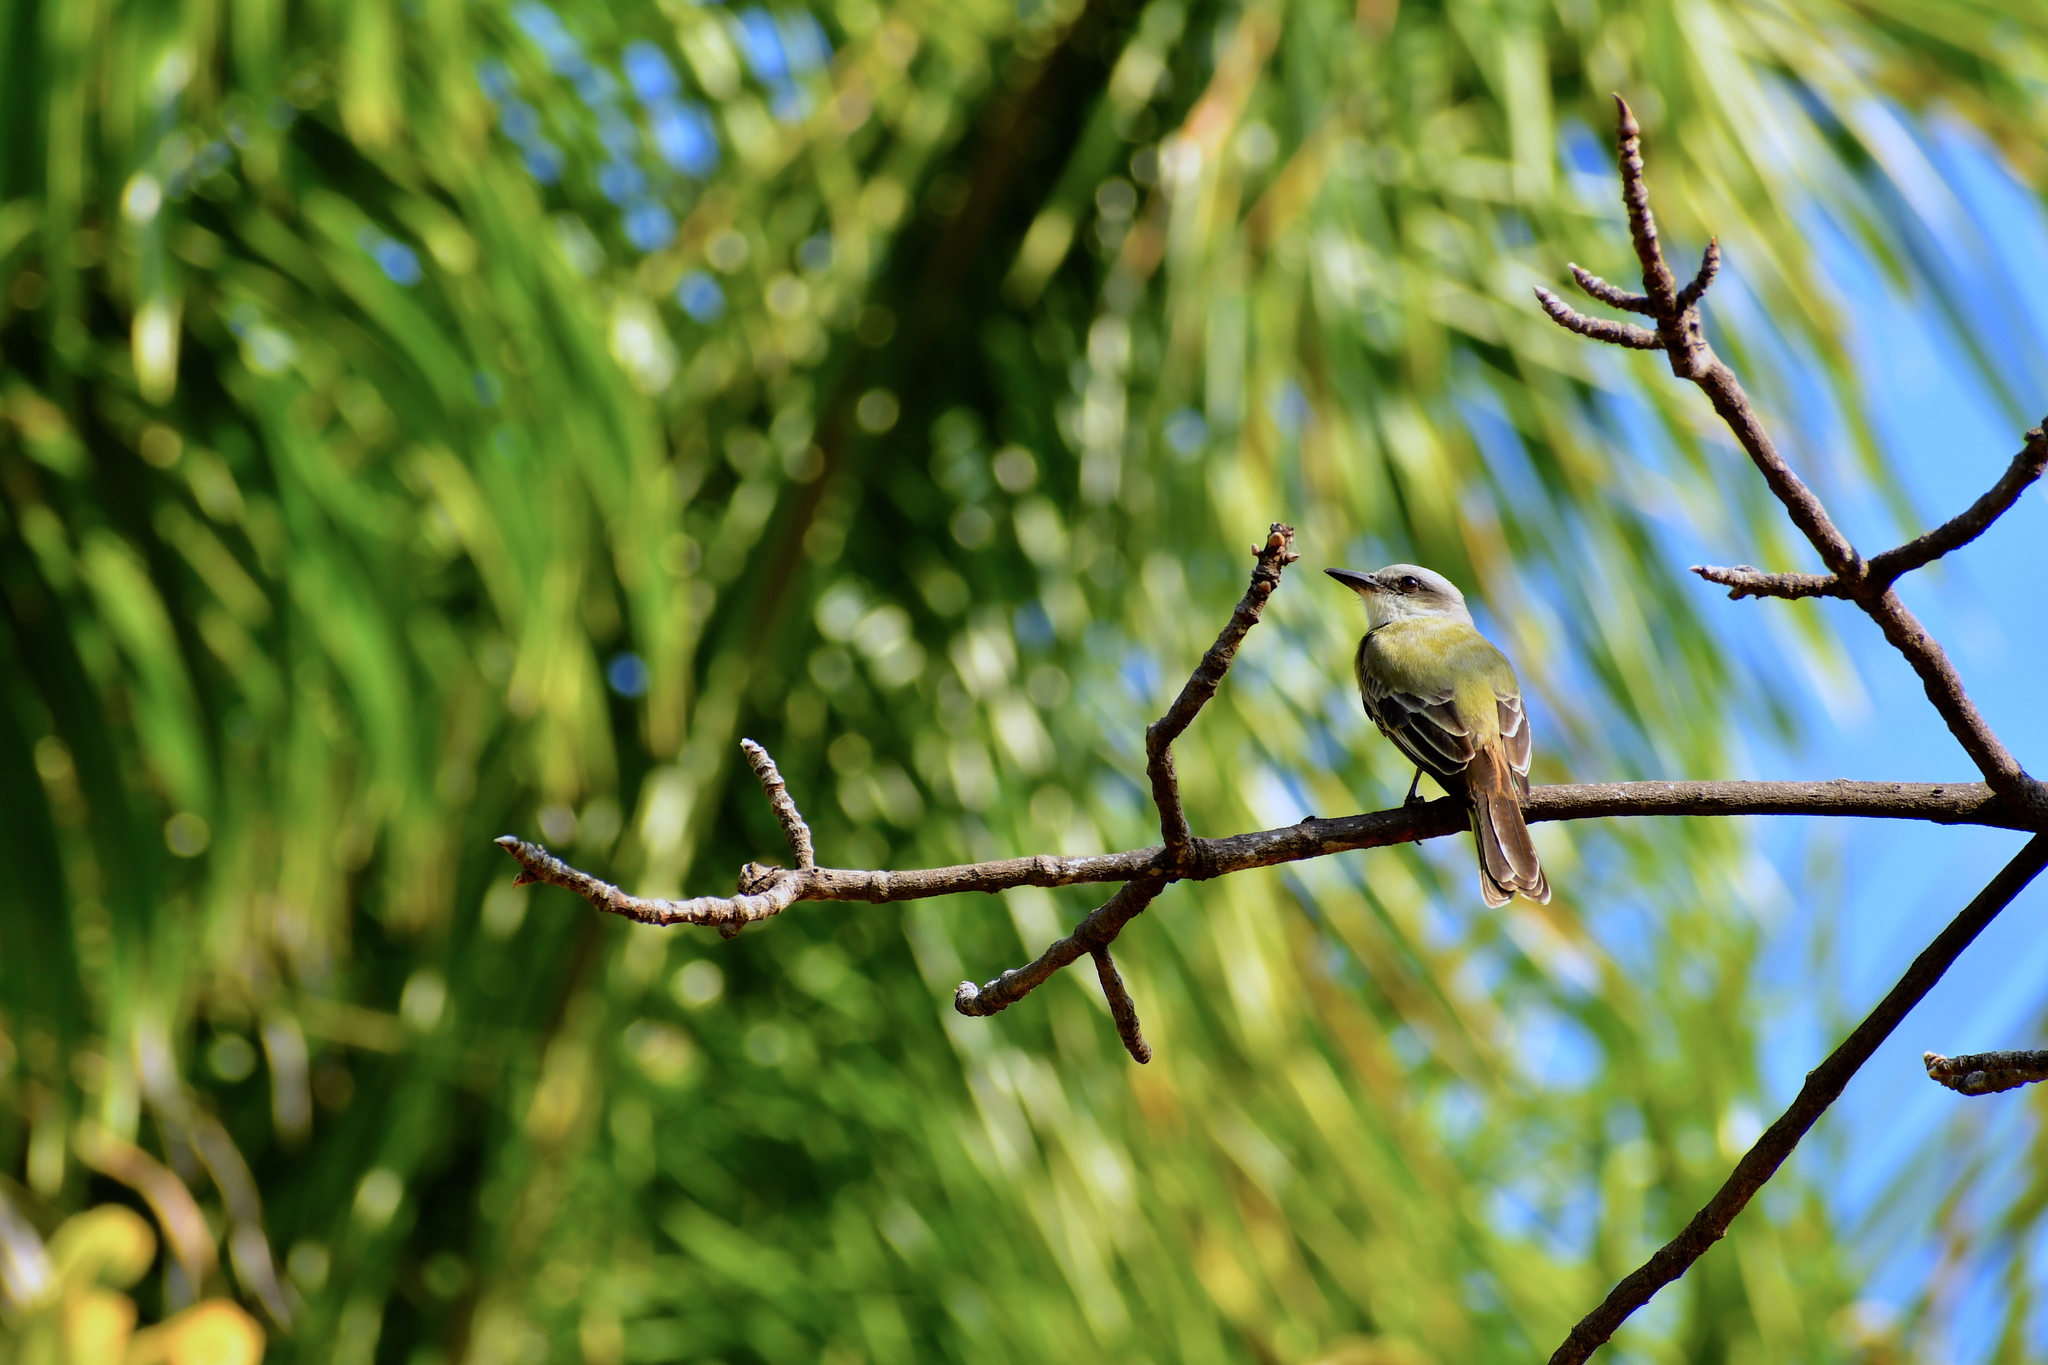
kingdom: Animalia
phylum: Chordata
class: Aves
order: Passeriformes
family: Tyrannidae
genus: Tyrannus
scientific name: Tyrannus melancholicus
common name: Tropical kingbird
